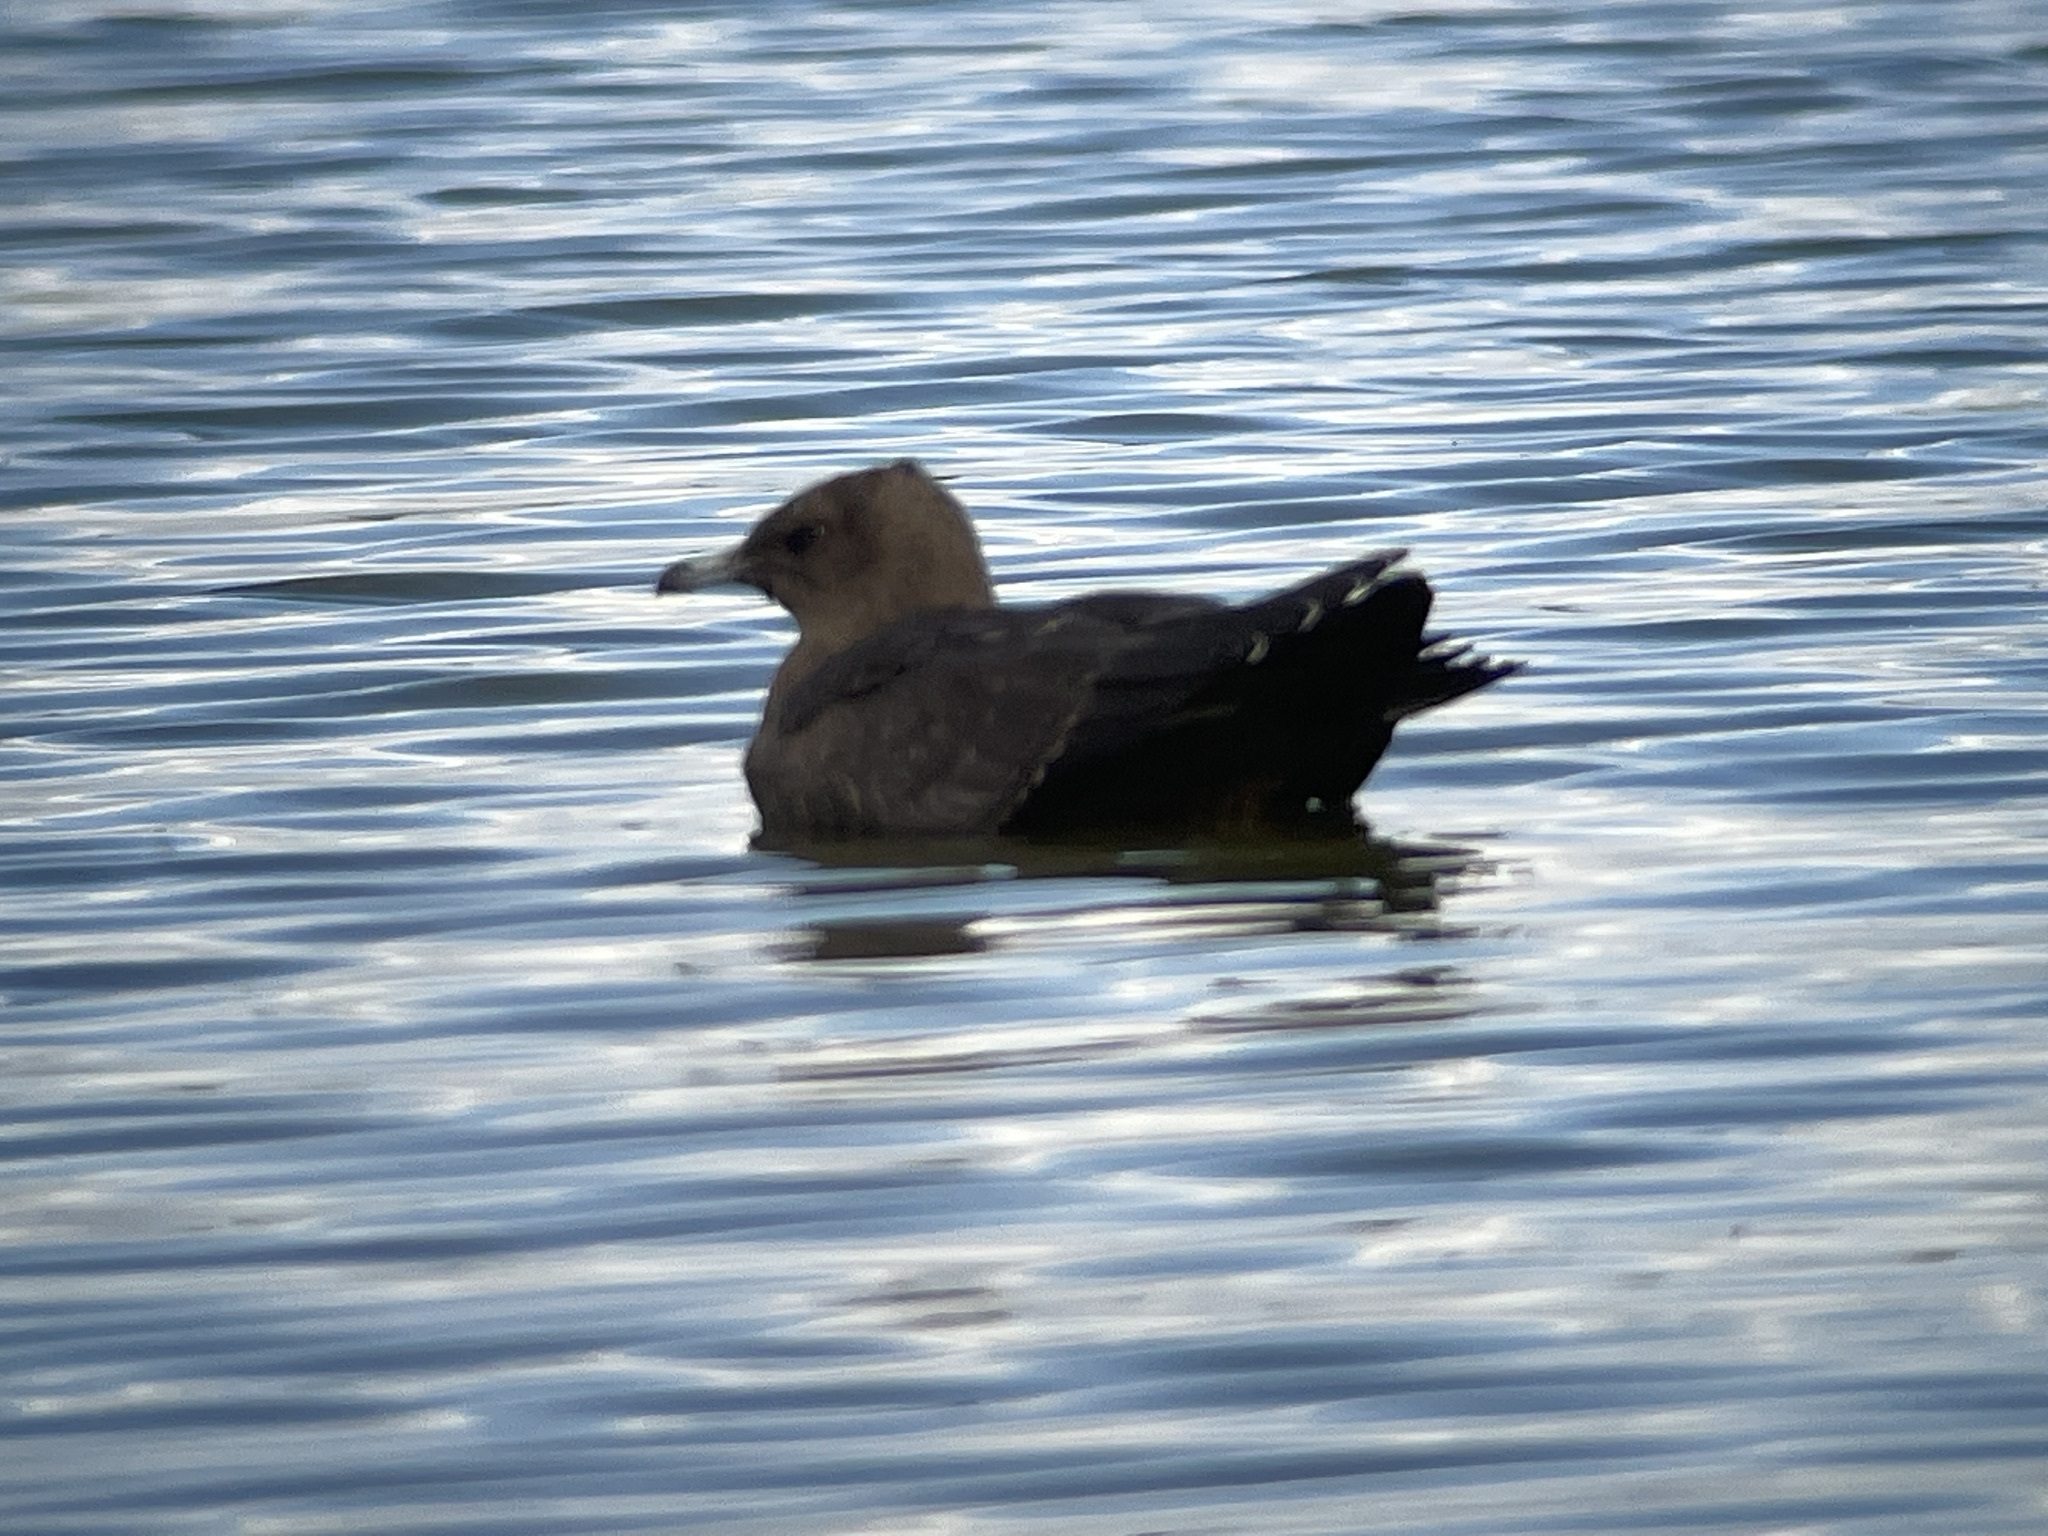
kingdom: Animalia
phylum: Chordata
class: Aves
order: Charadriiformes
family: Stercorariidae
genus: Stercorarius
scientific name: Stercorarius parasiticus
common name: Parasitic jaeger
